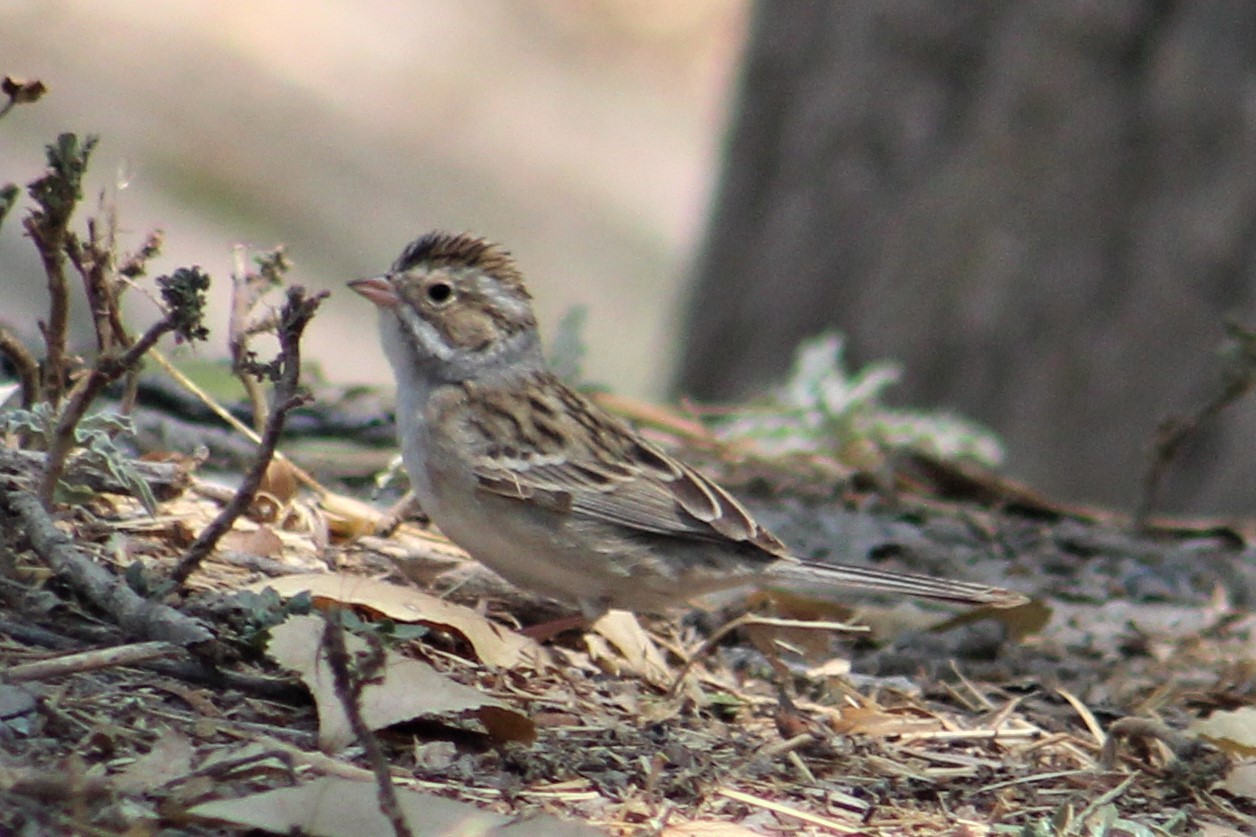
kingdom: Animalia
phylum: Chordata
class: Aves
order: Passeriformes
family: Passerellidae
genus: Spizella
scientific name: Spizella pallida
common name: Clay-colored sparrow
